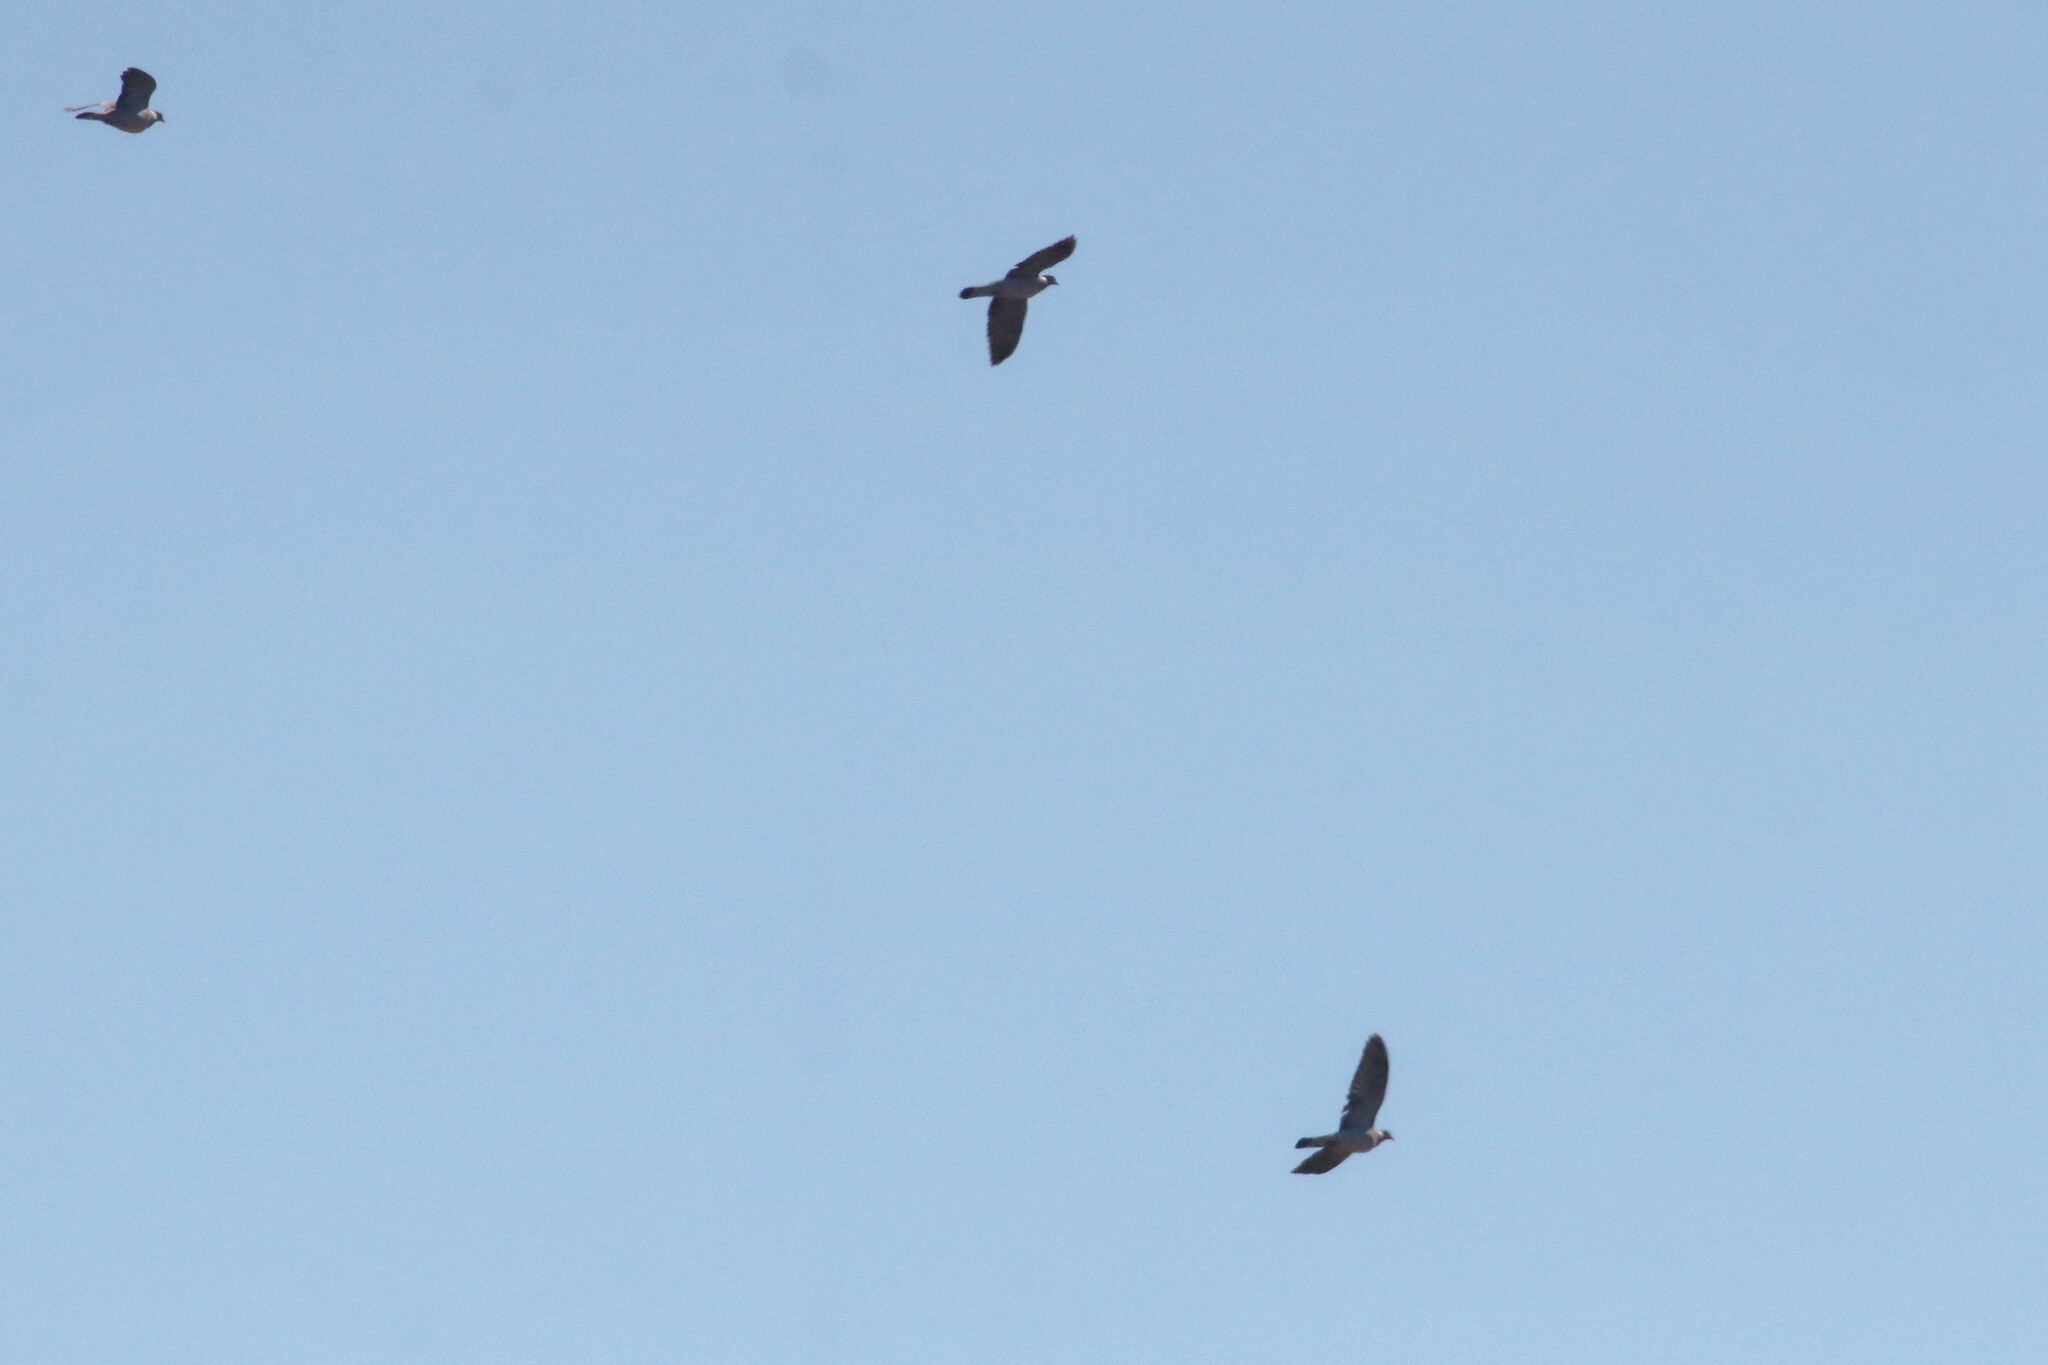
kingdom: Animalia
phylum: Chordata
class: Aves
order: Columbiformes
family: Columbidae
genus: Columba
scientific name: Columba palumbus
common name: Common wood pigeon
